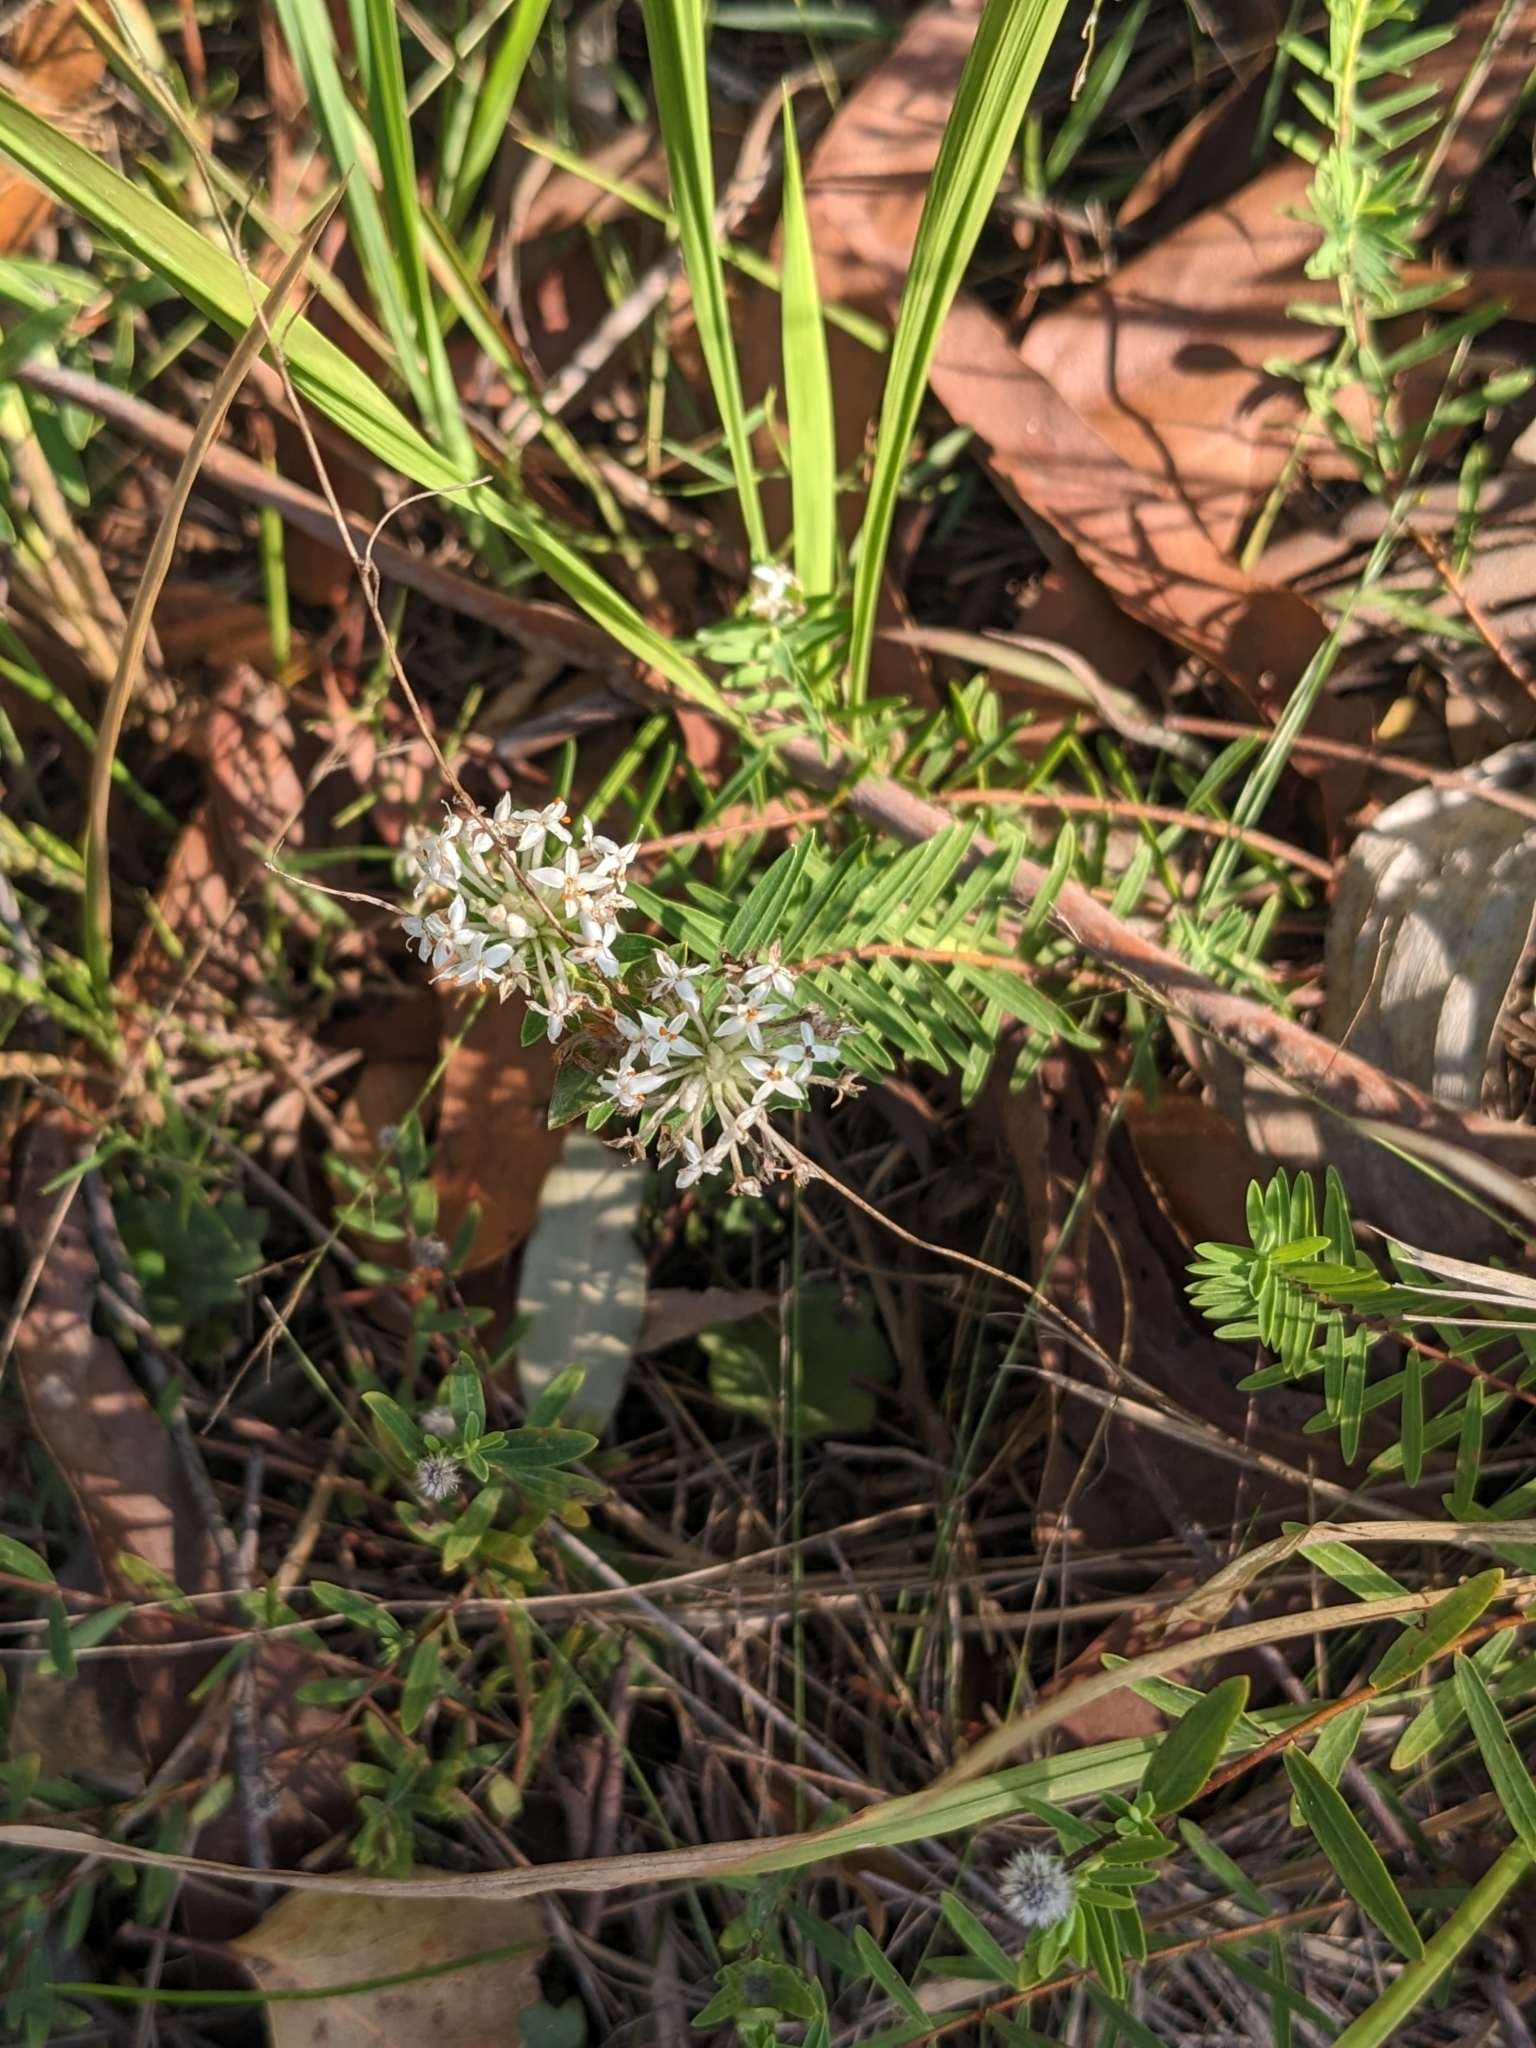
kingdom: Plantae
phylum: Tracheophyta
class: Magnoliopsida
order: Malvales
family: Thymelaeaceae
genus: Pimelea
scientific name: Pimelea linifolia
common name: Queen-of-the-bush
